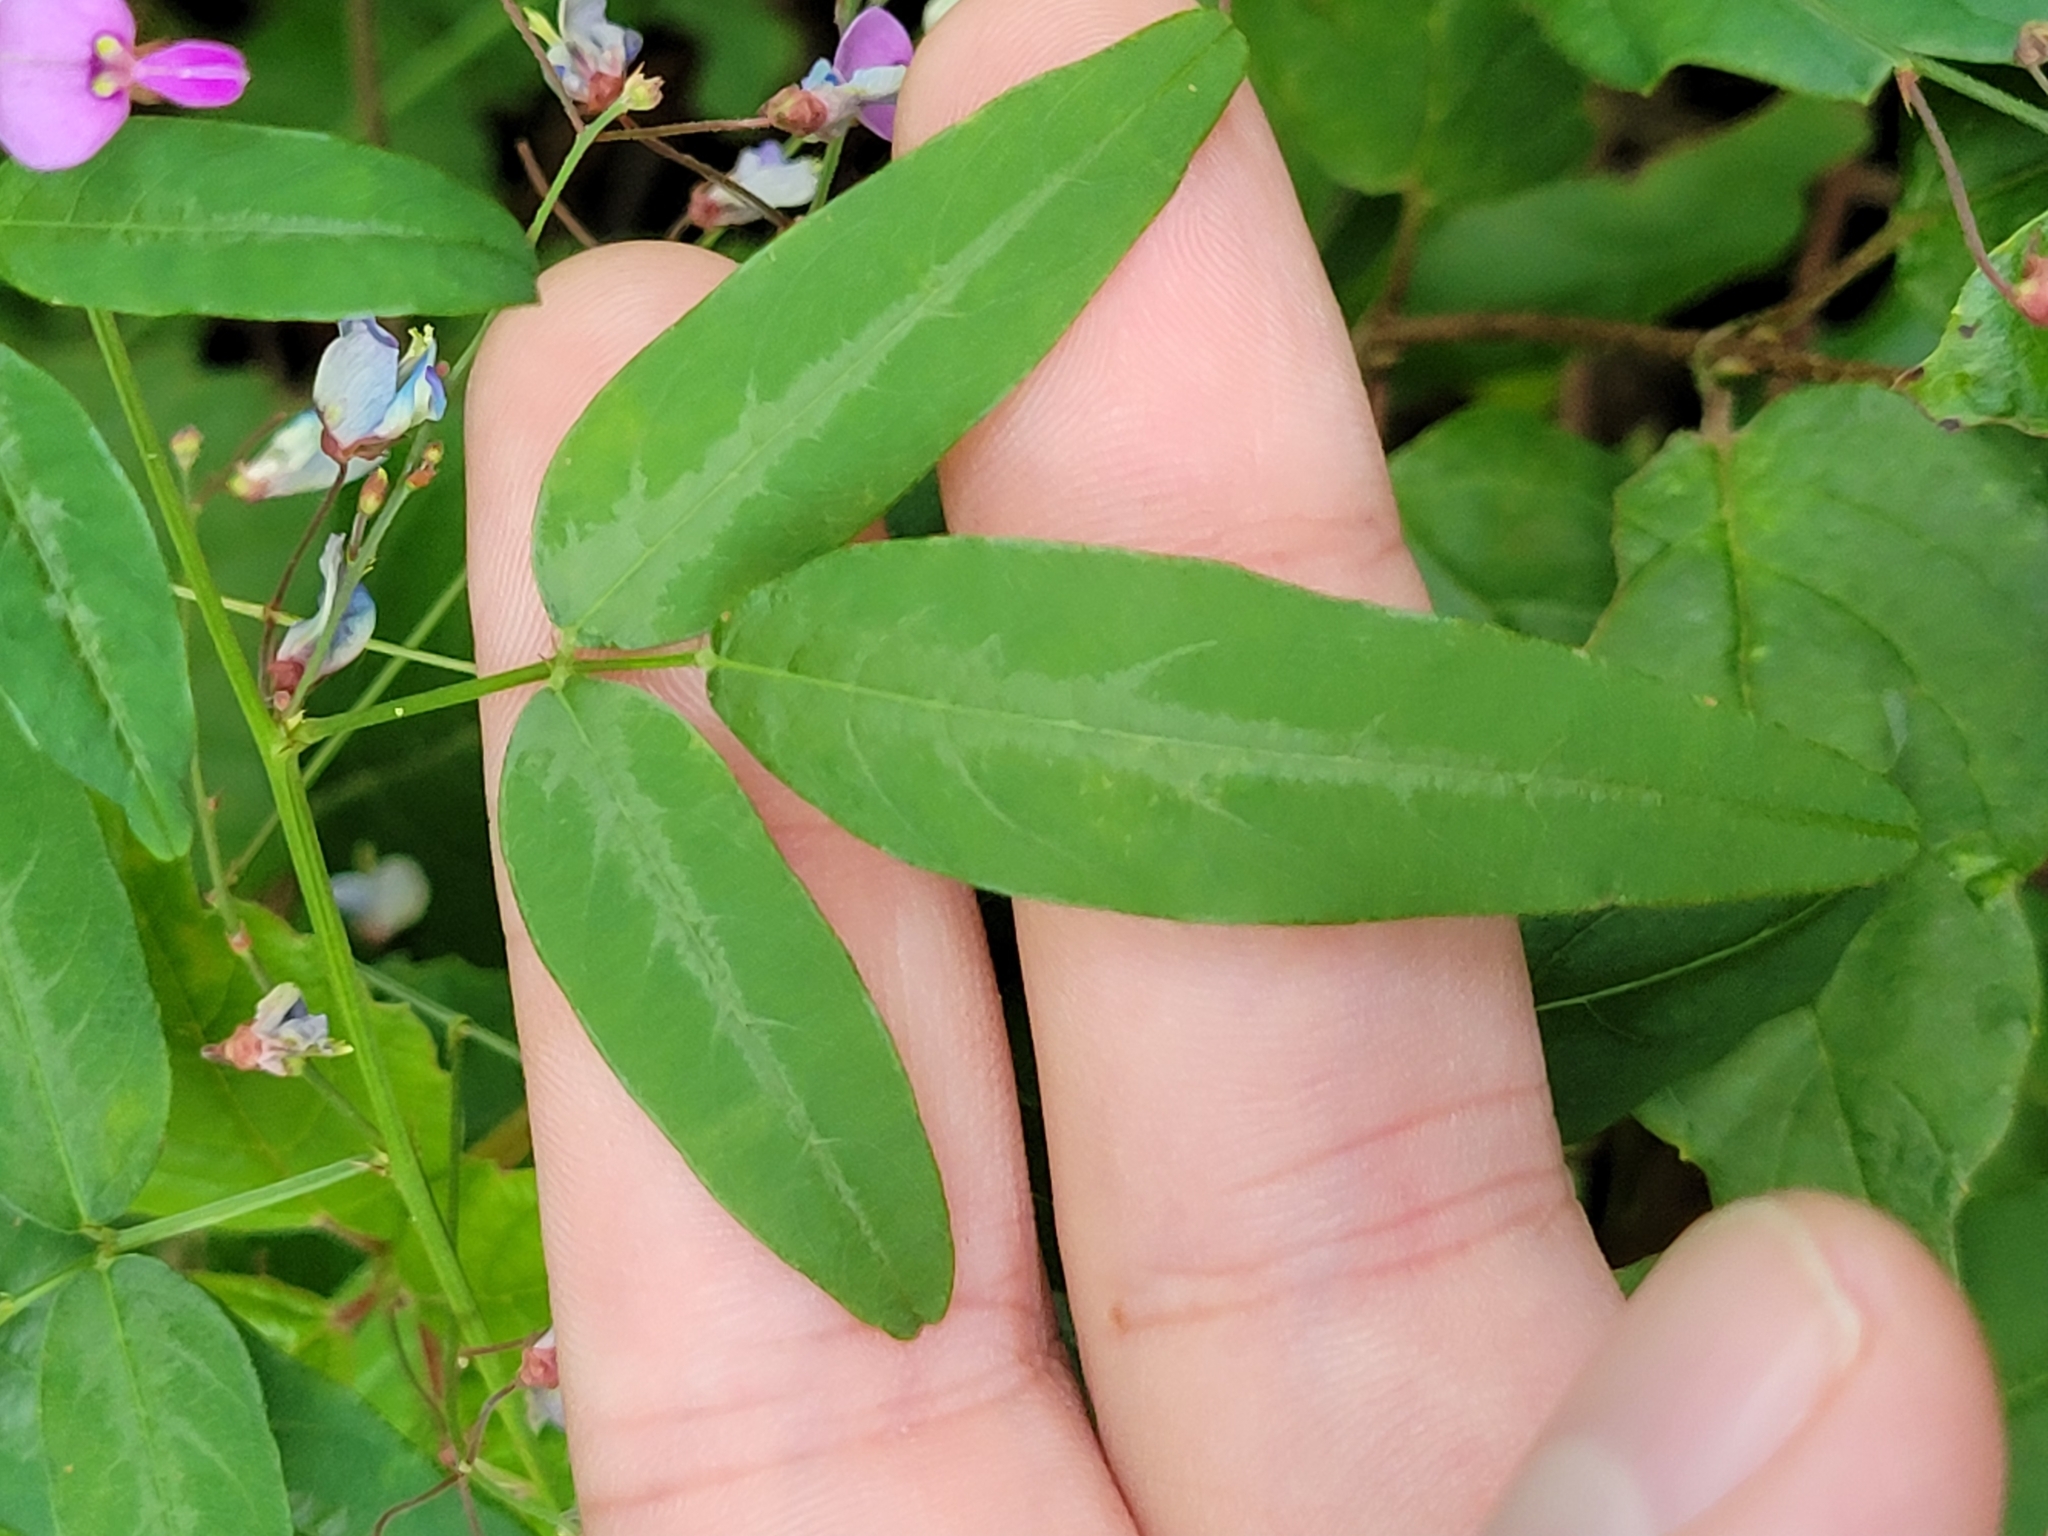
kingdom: Plantae
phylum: Tracheophyta
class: Magnoliopsida
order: Fabales
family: Fabaceae
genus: Desmodium
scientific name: Desmodium paniculatum
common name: Panicled tick-clover
